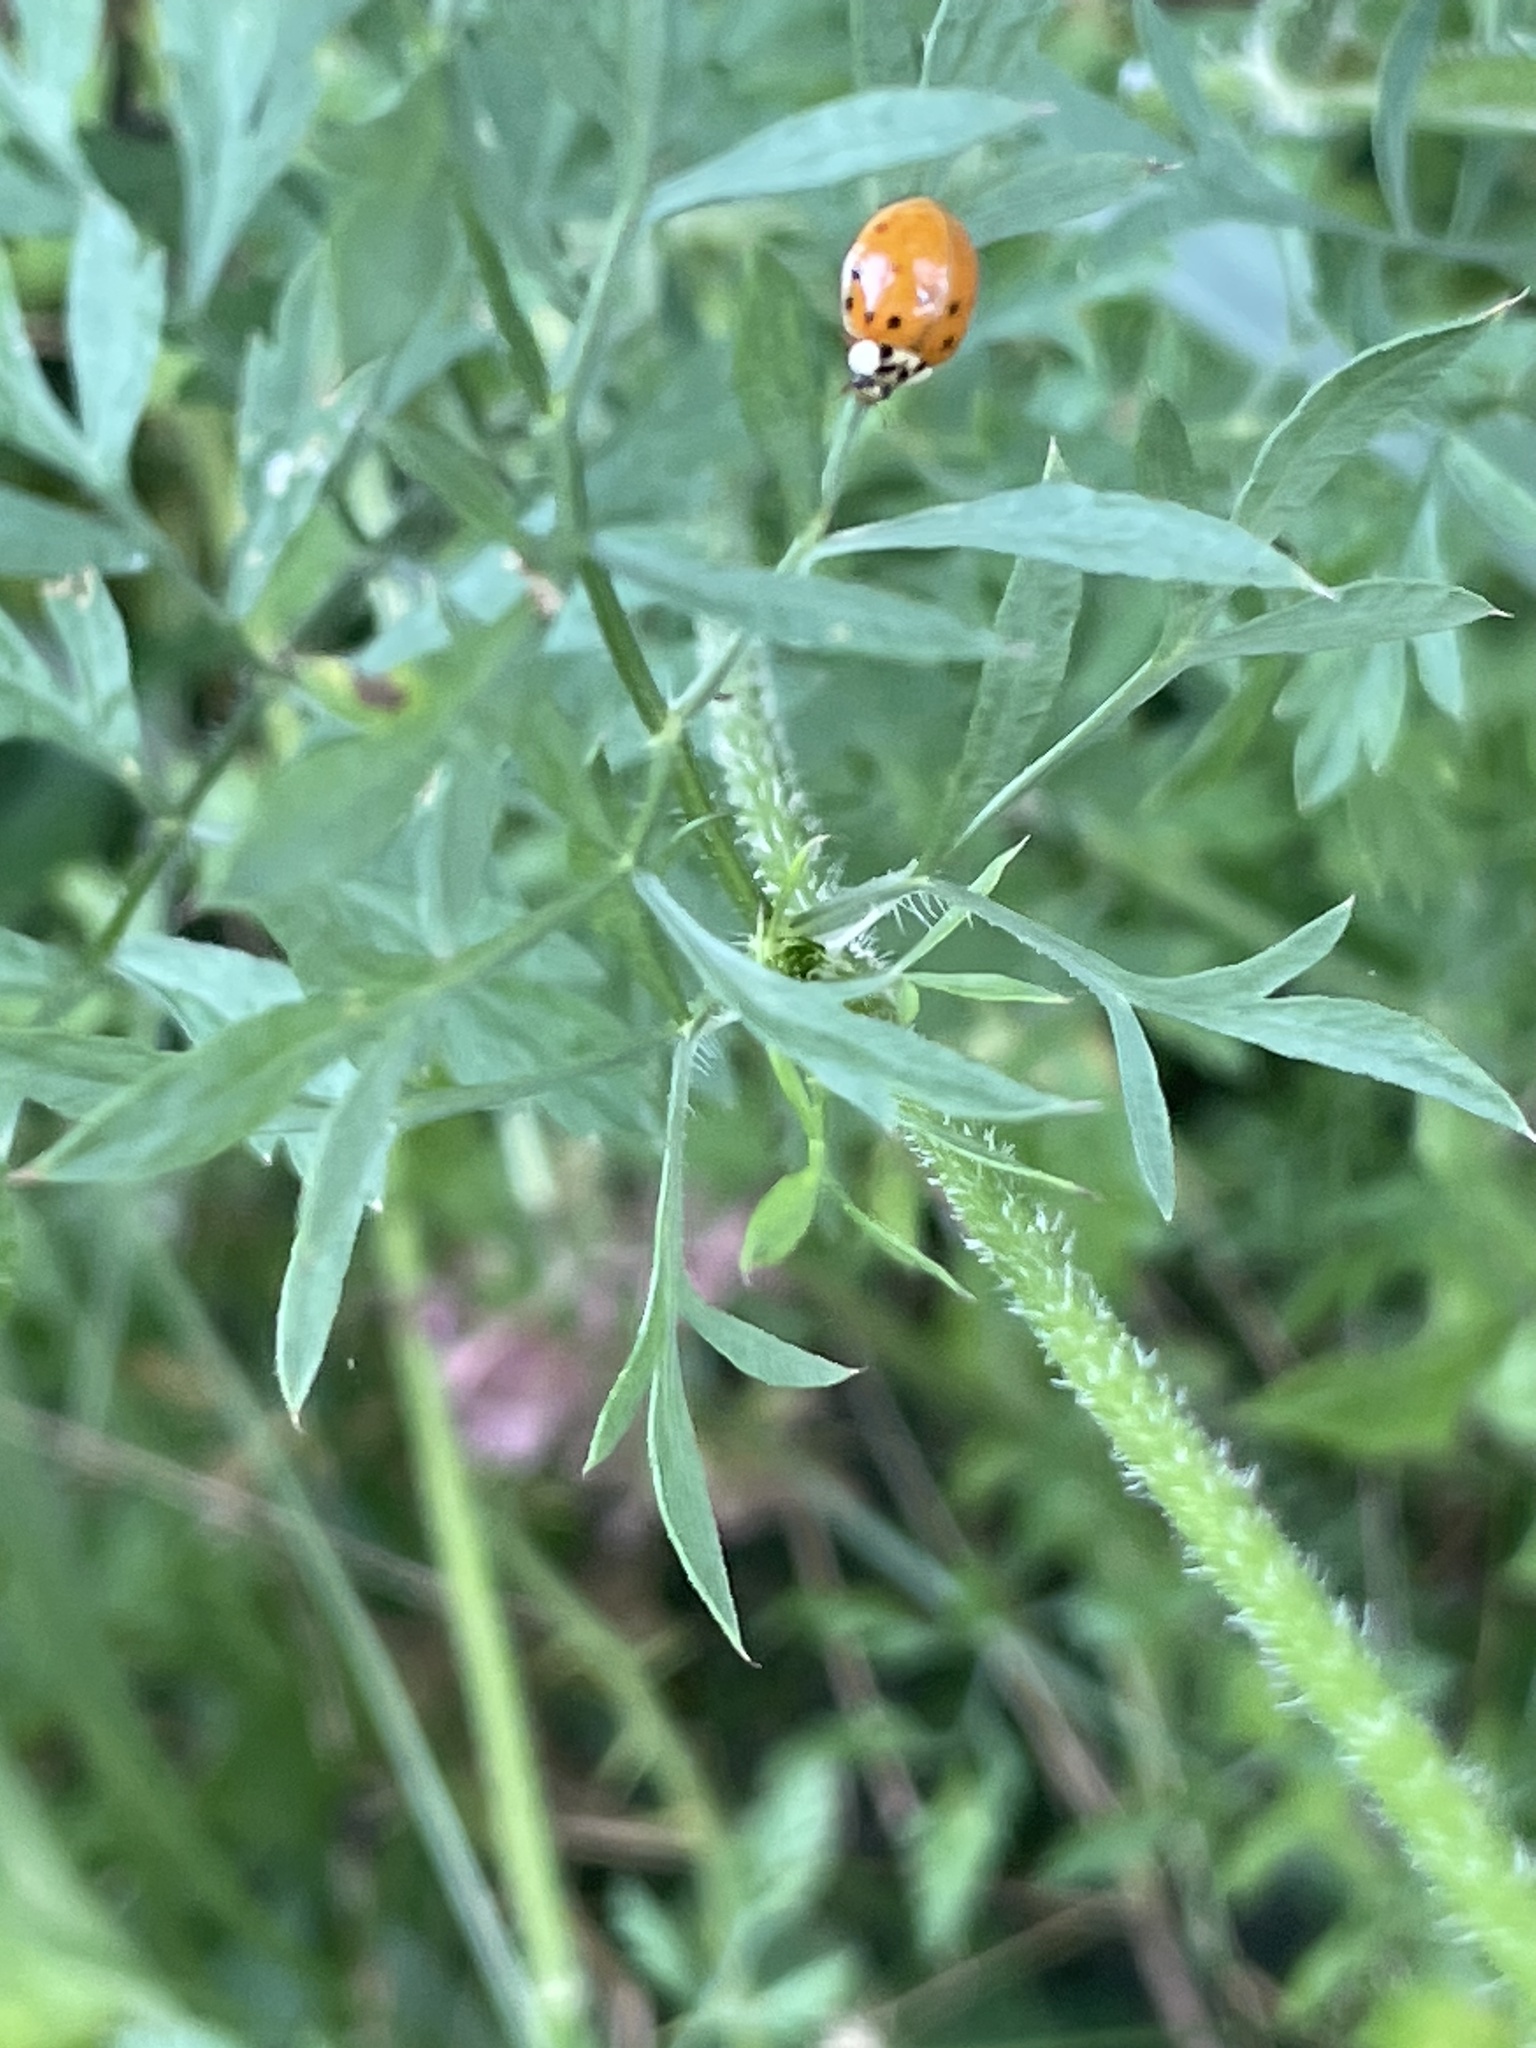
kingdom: Animalia
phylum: Arthropoda
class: Insecta
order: Coleoptera
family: Coccinellidae
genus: Harmonia
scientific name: Harmonia axyridis
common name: Harlequin ladybird
